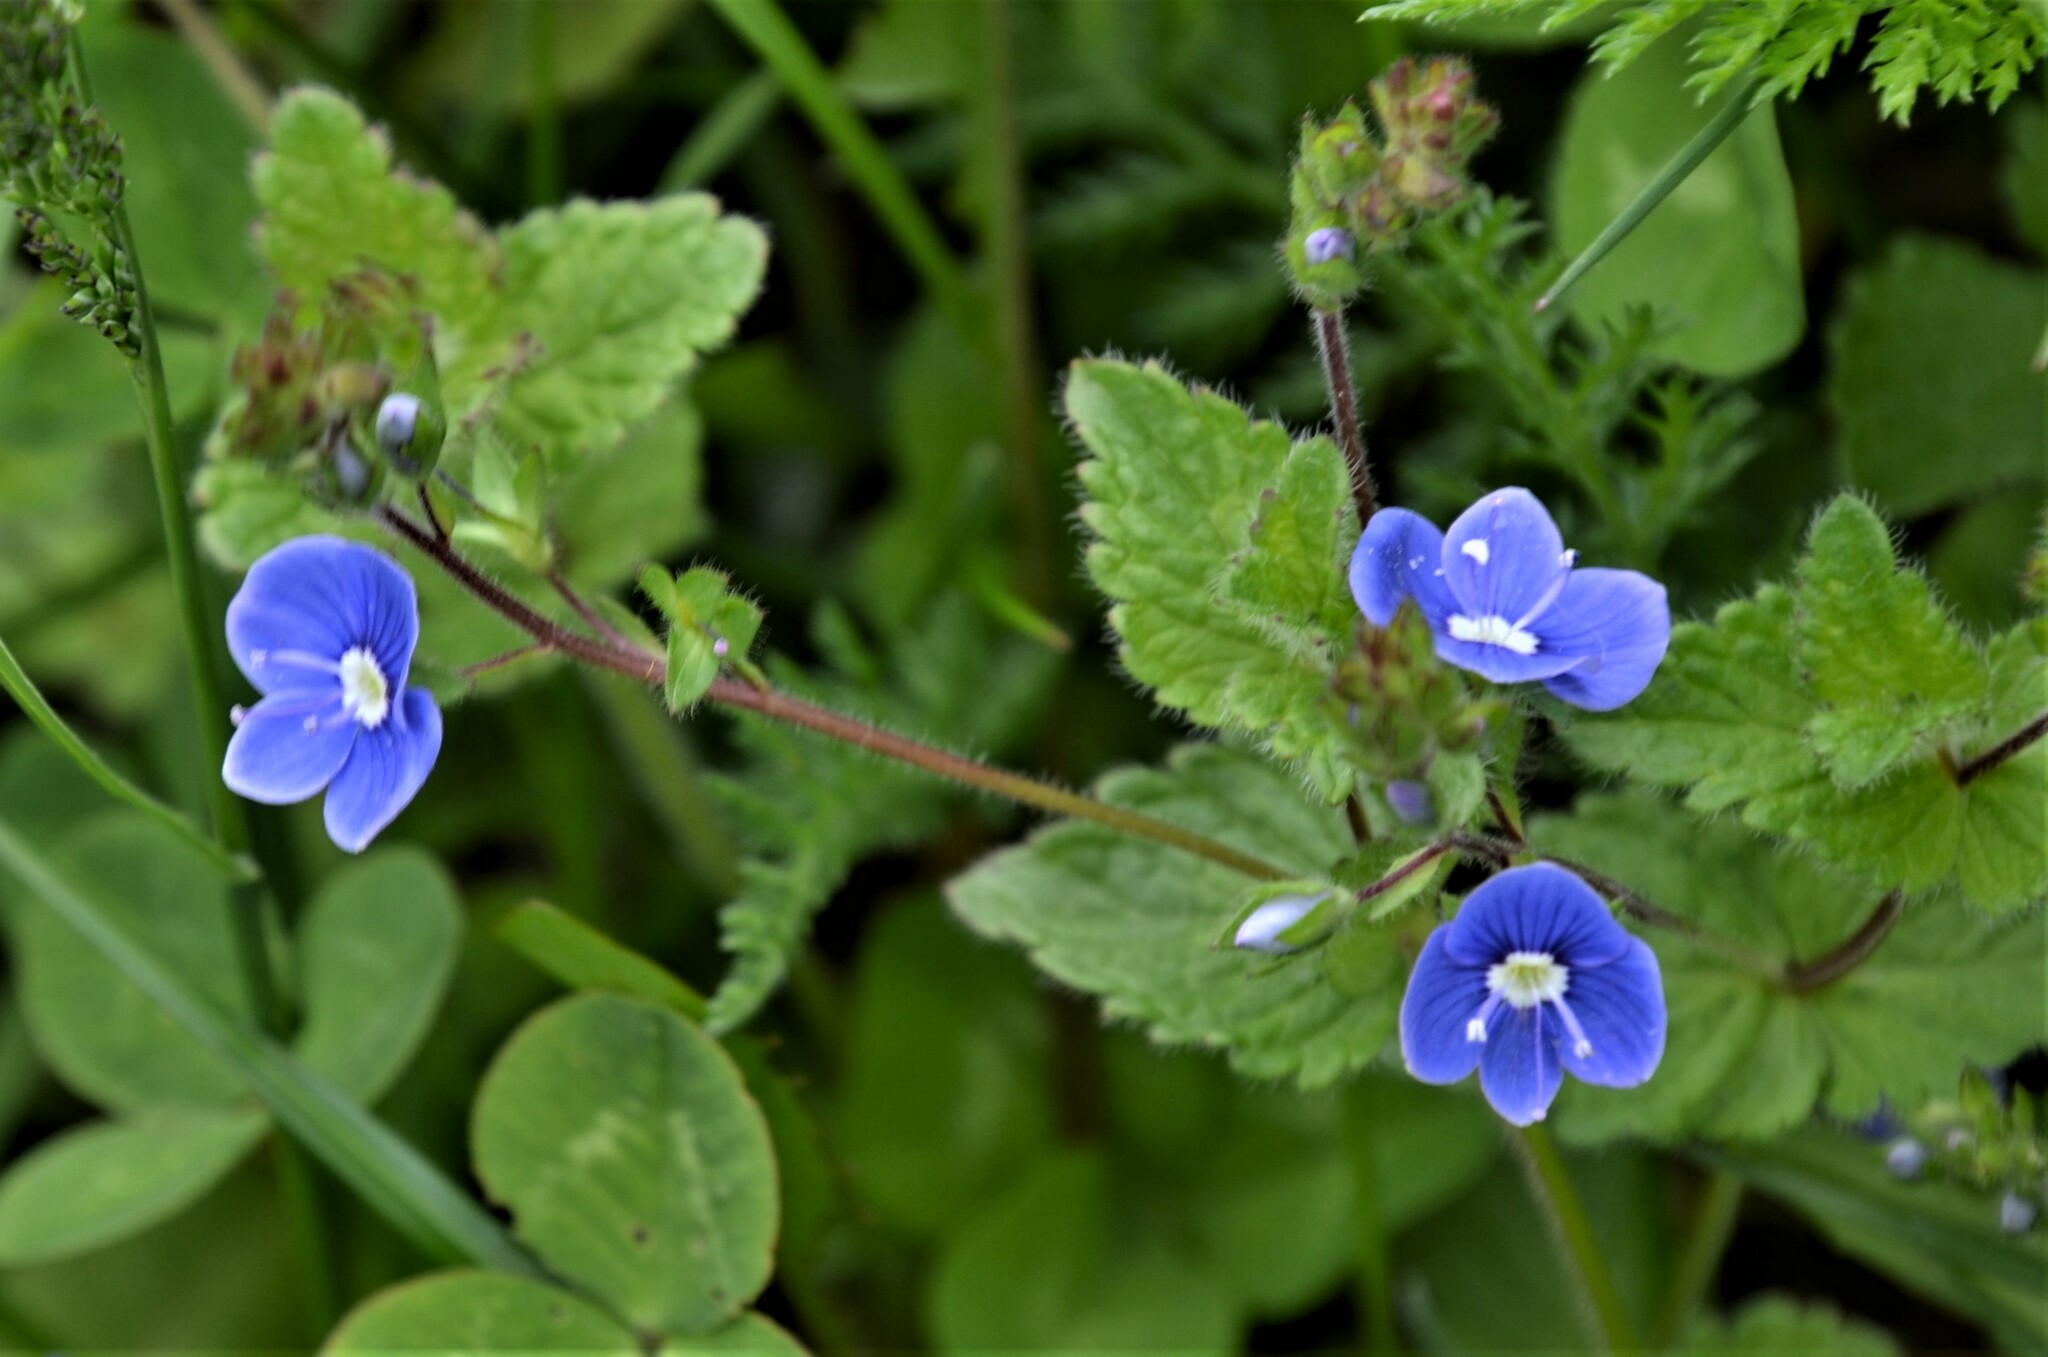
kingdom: Plantae
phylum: Tracheophyta
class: Magnoliopsida
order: Lamiales
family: Plantaginaceae
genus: Veronica
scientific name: Veronica chamaedrys
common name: Germander speedwell
